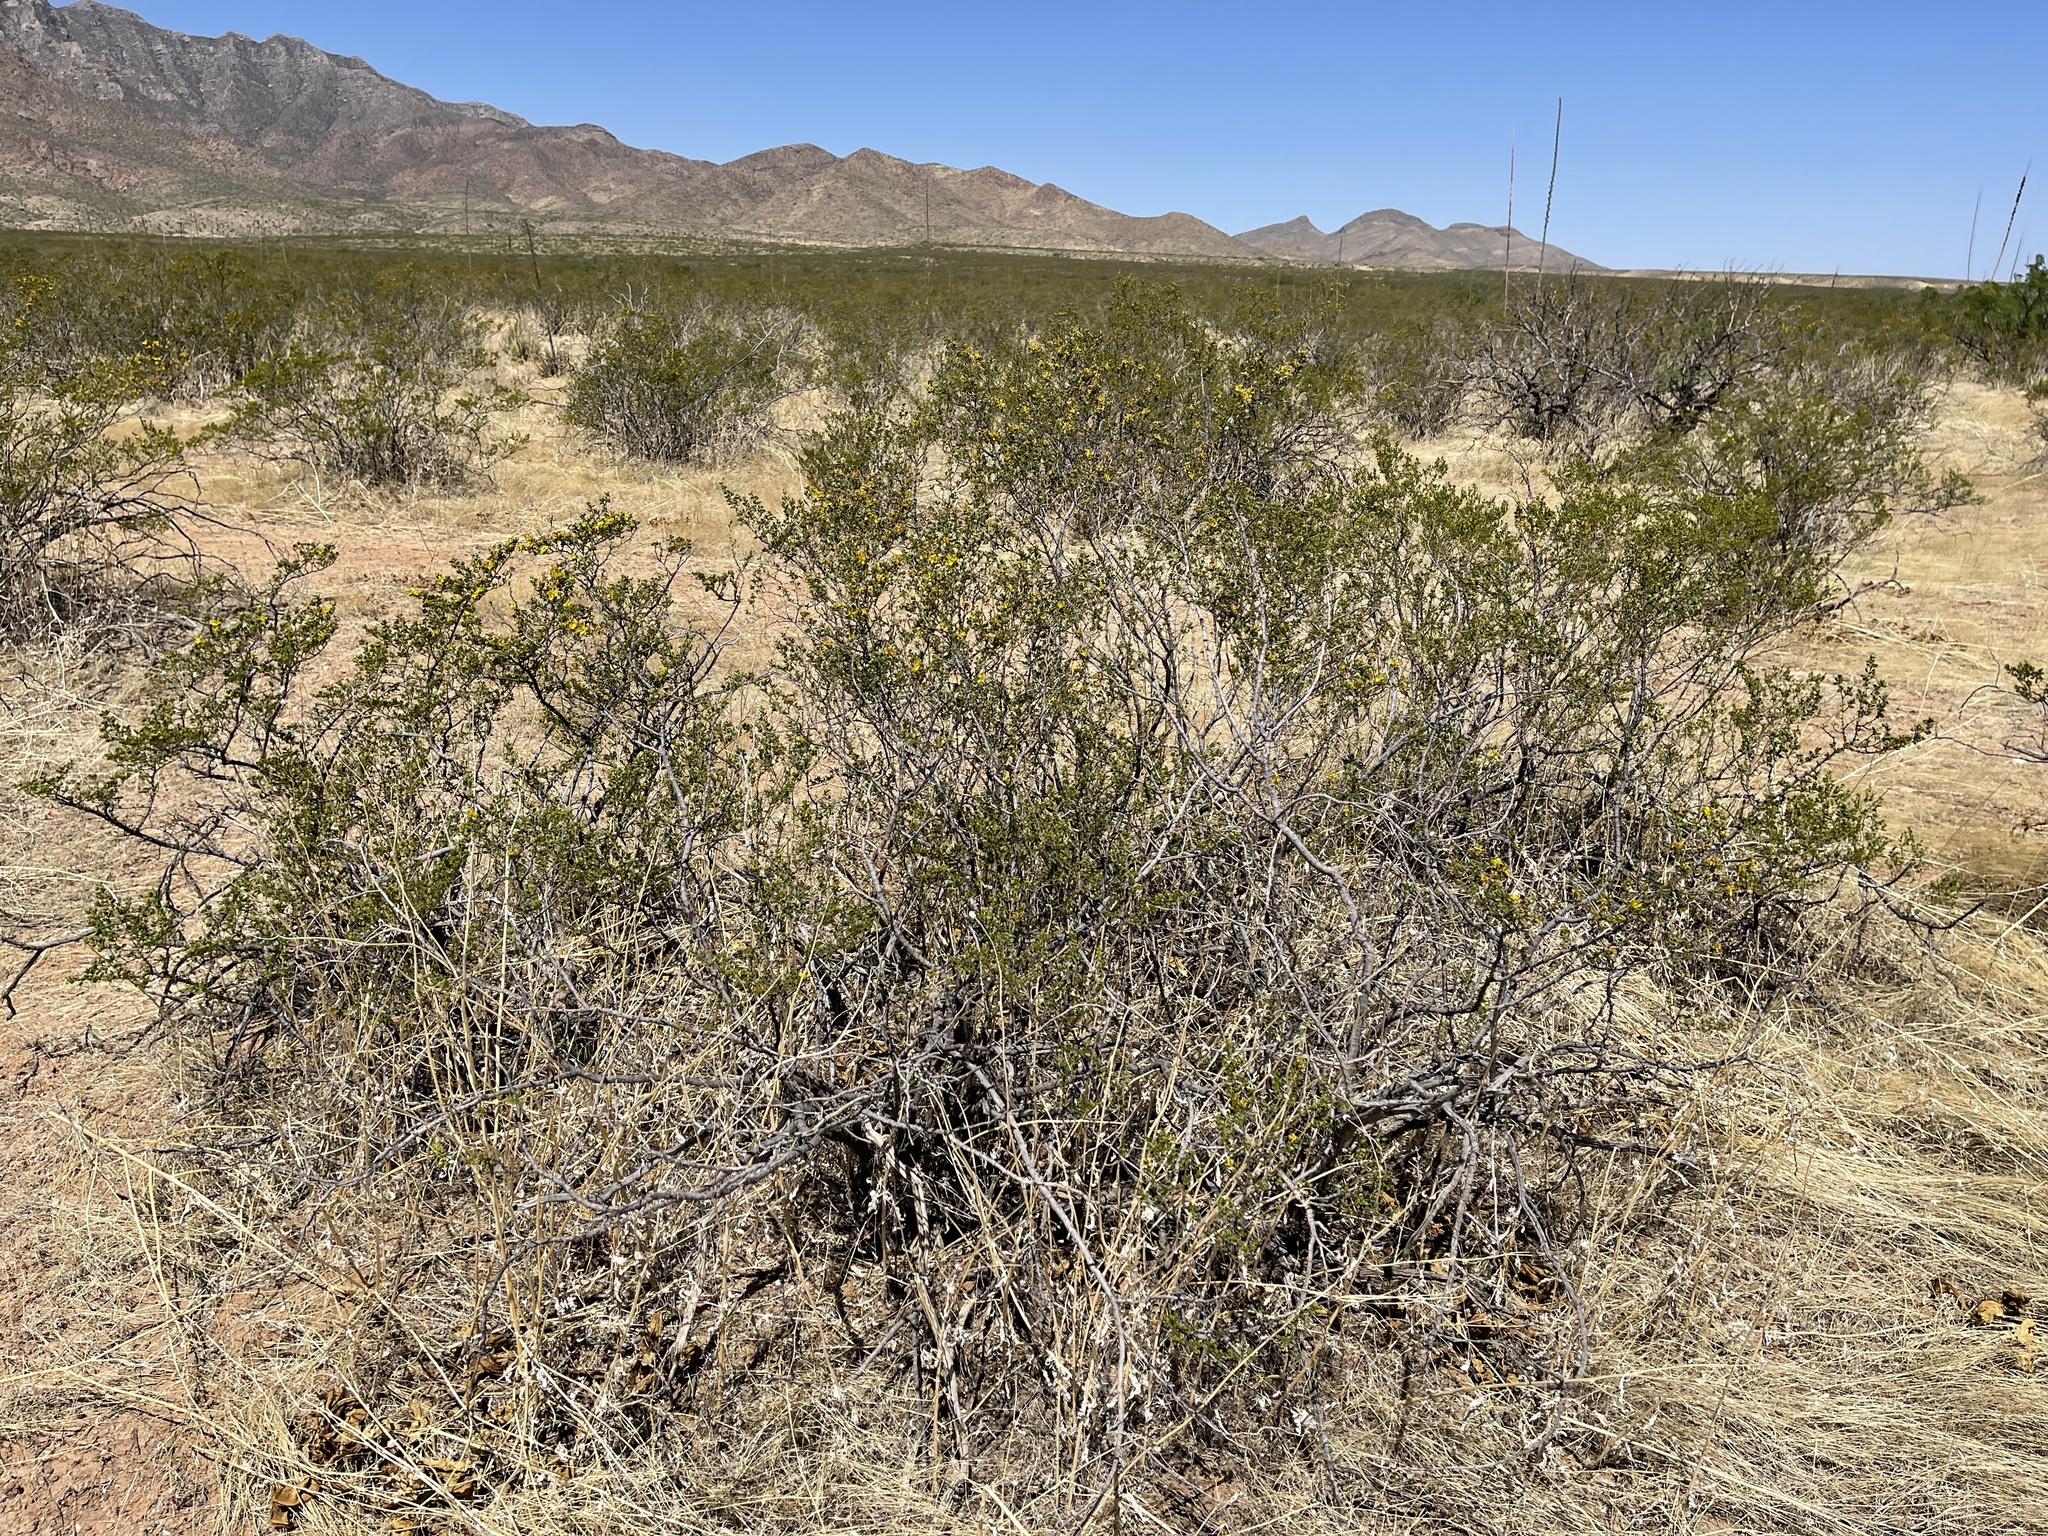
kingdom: Plantae
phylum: Tracheophyta
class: Magnoliopsida
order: Zygophyllales
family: Zygophyllaceae
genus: Larrea
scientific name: Larrea tridentata
